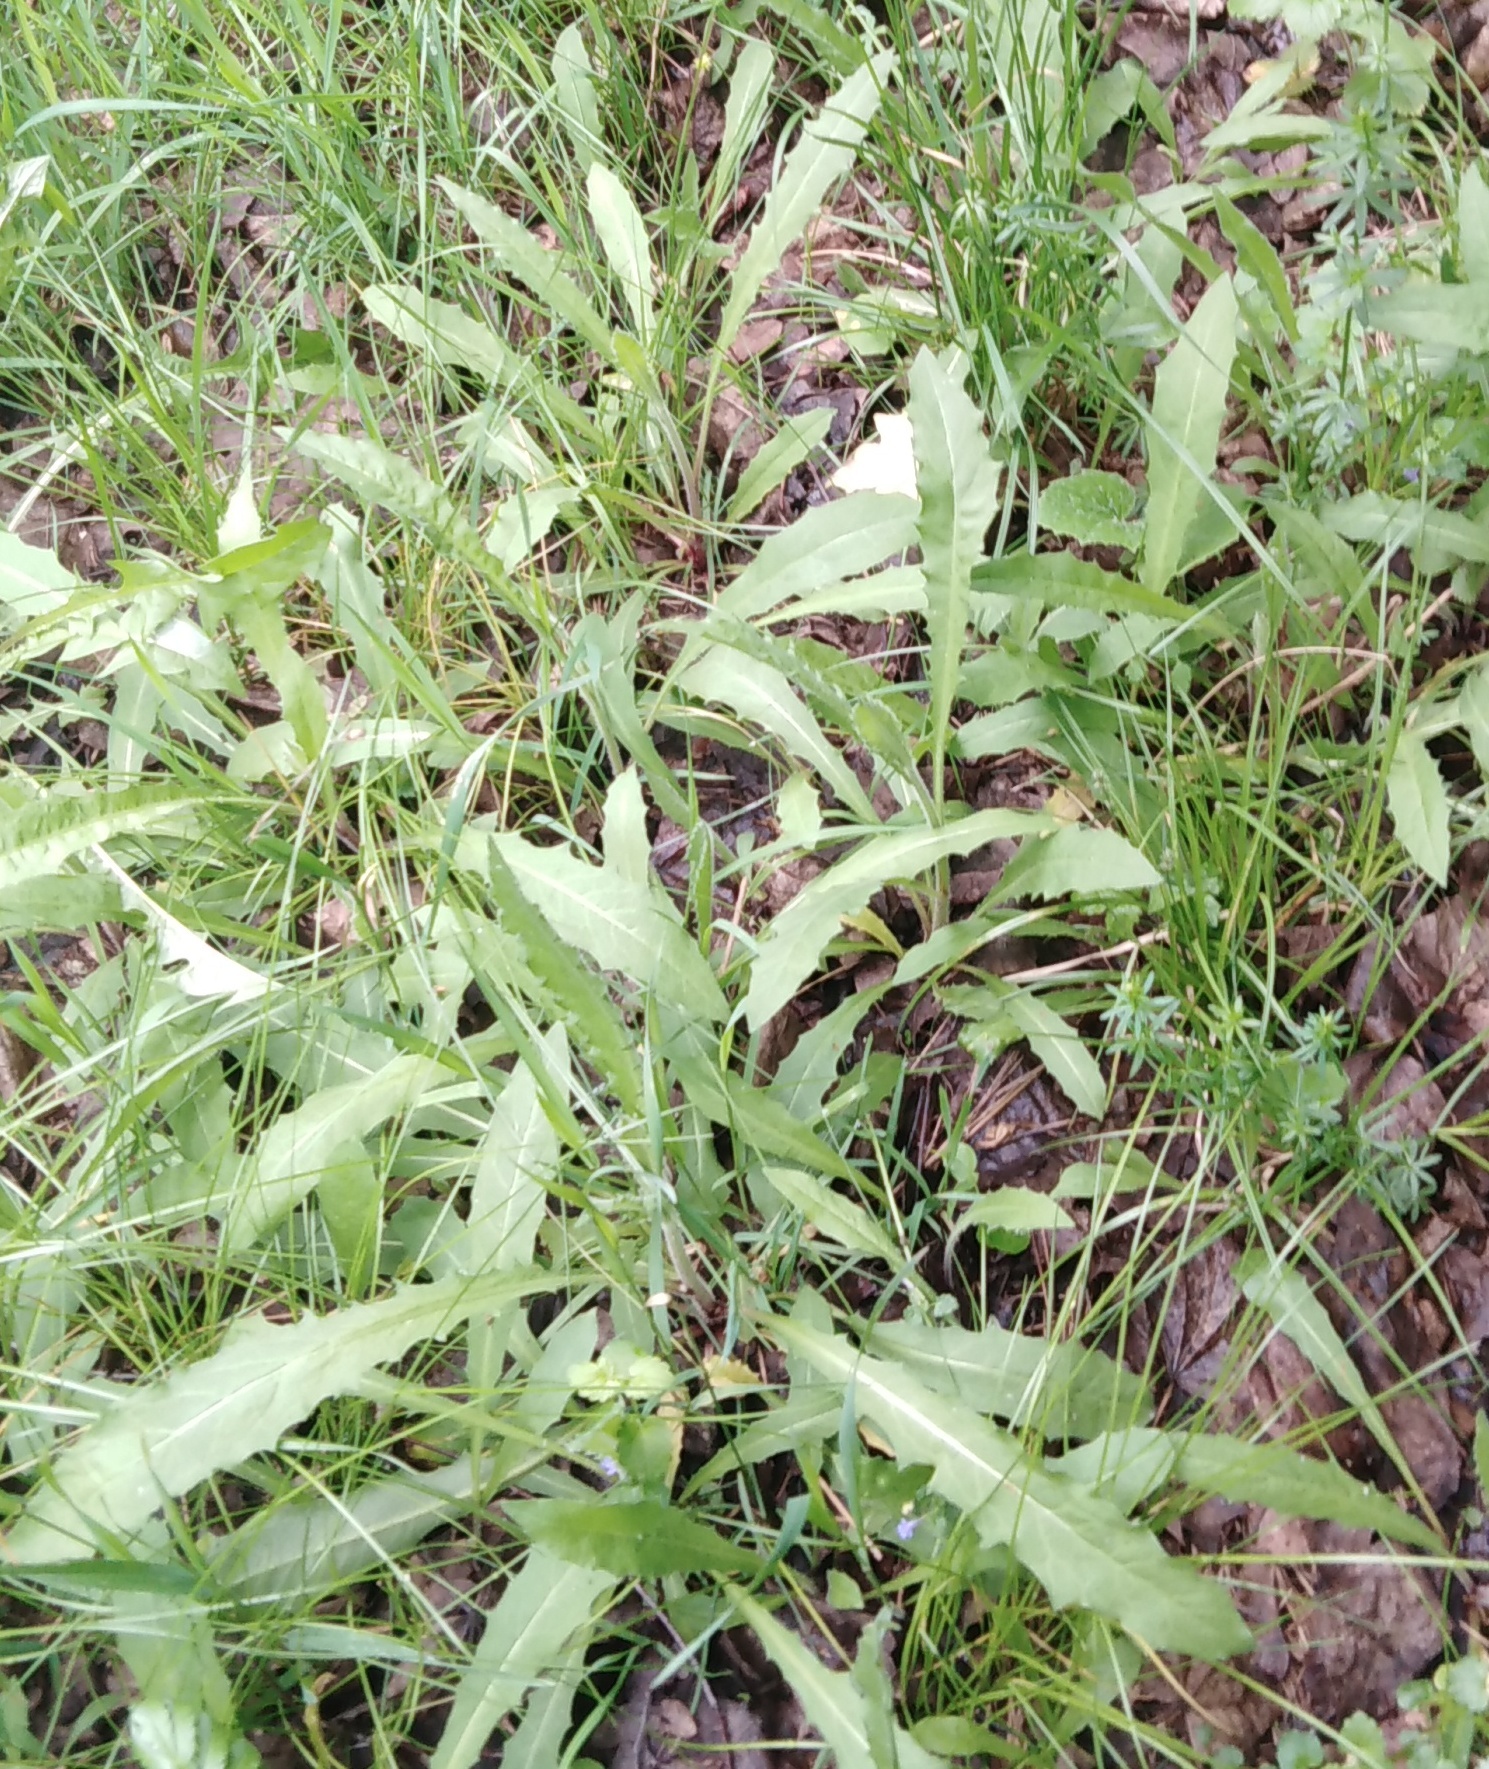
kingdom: Plantae
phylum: Tracheophyta
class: Magnoliopsida
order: Asterales
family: Asteraceae
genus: Picris
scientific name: Picris hieracioides
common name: Hawkweed oxtongue
